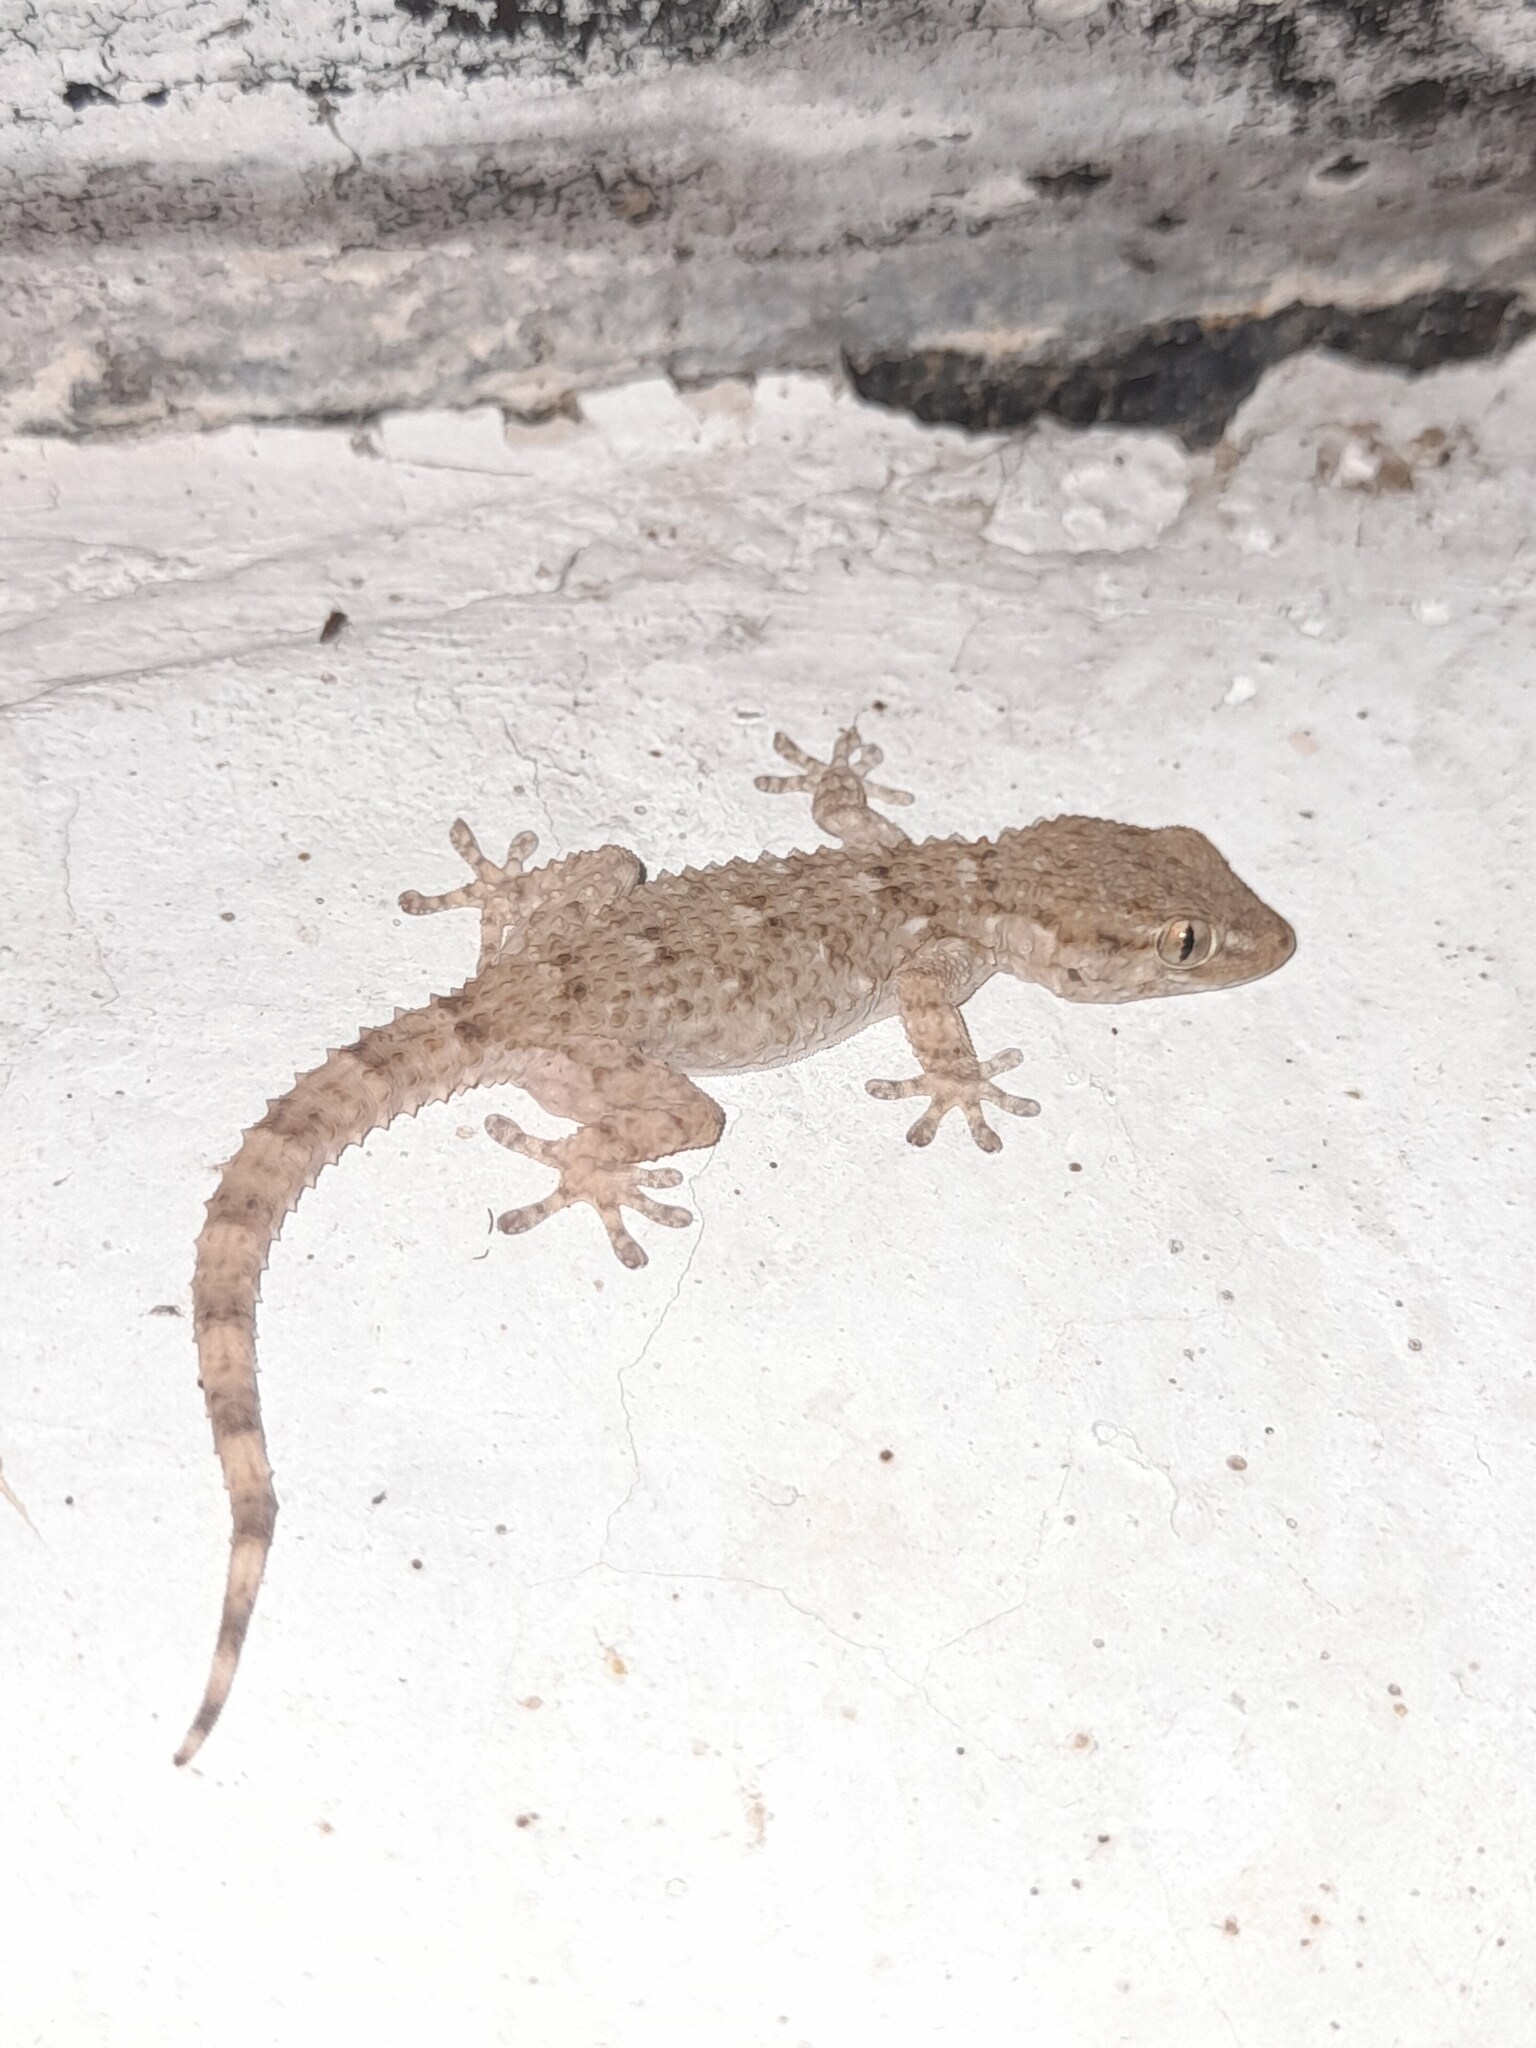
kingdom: Animalia
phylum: Chordata
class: Squamata
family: Phyllodactylidae
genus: Tarentola
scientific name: Tarentola mauritanica
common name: Moorish gecko
